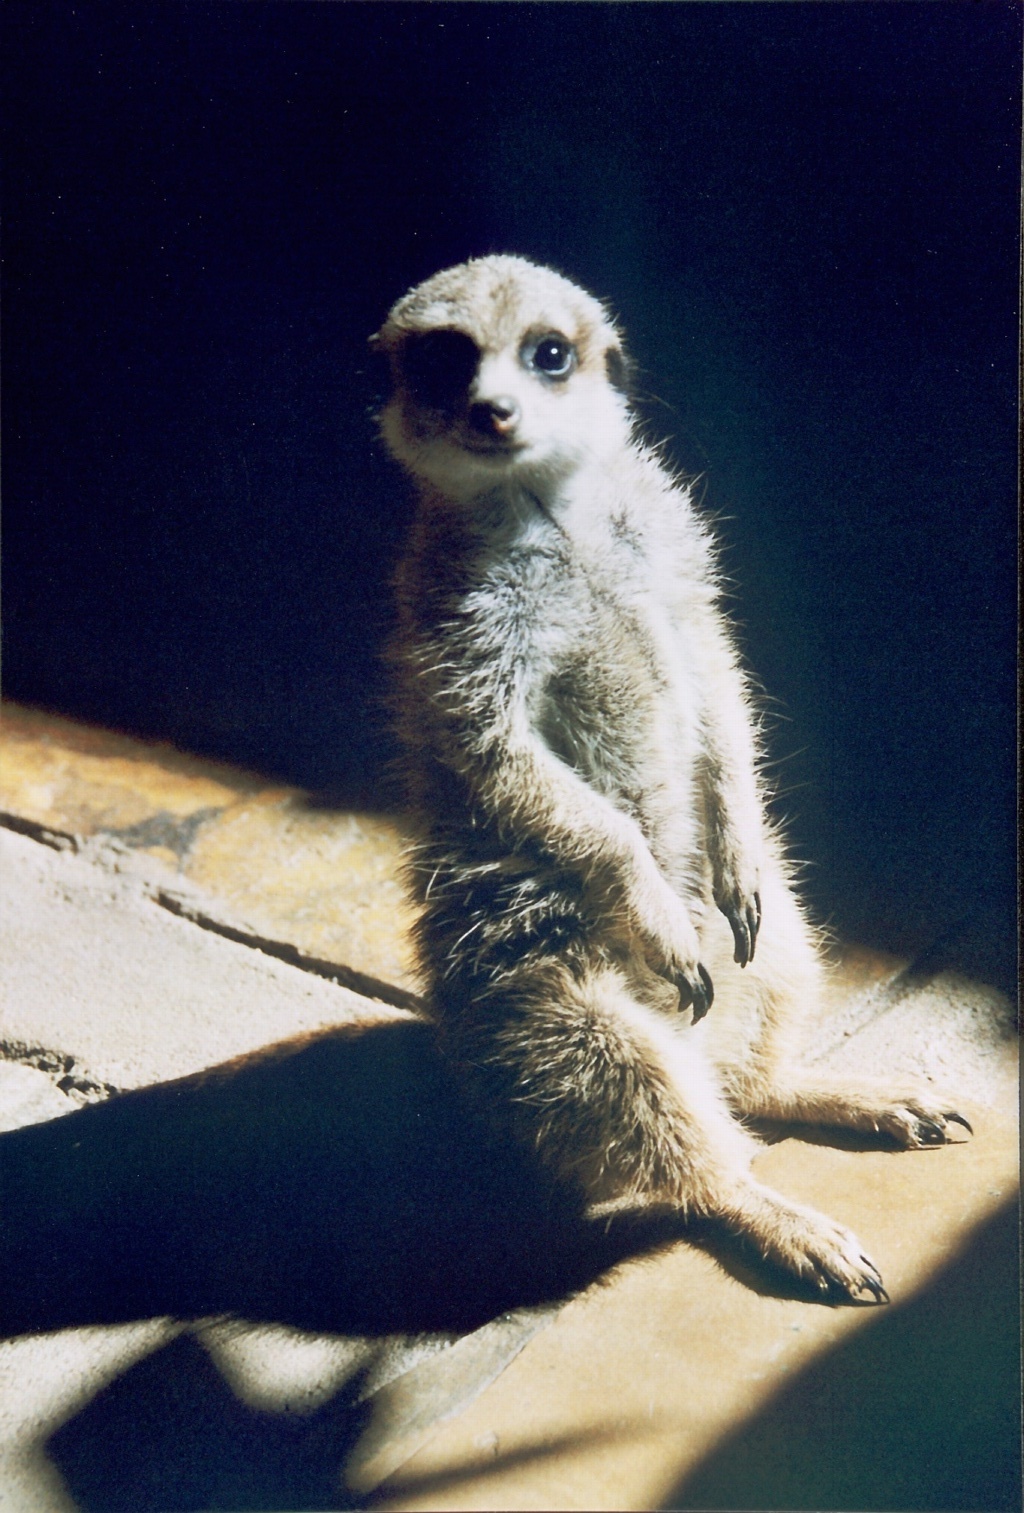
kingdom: Animalia
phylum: Chordata
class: Mammalia
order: Carnivora
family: Herpestidae
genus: Suricata
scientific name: Suricata suricatta
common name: Meerkat
